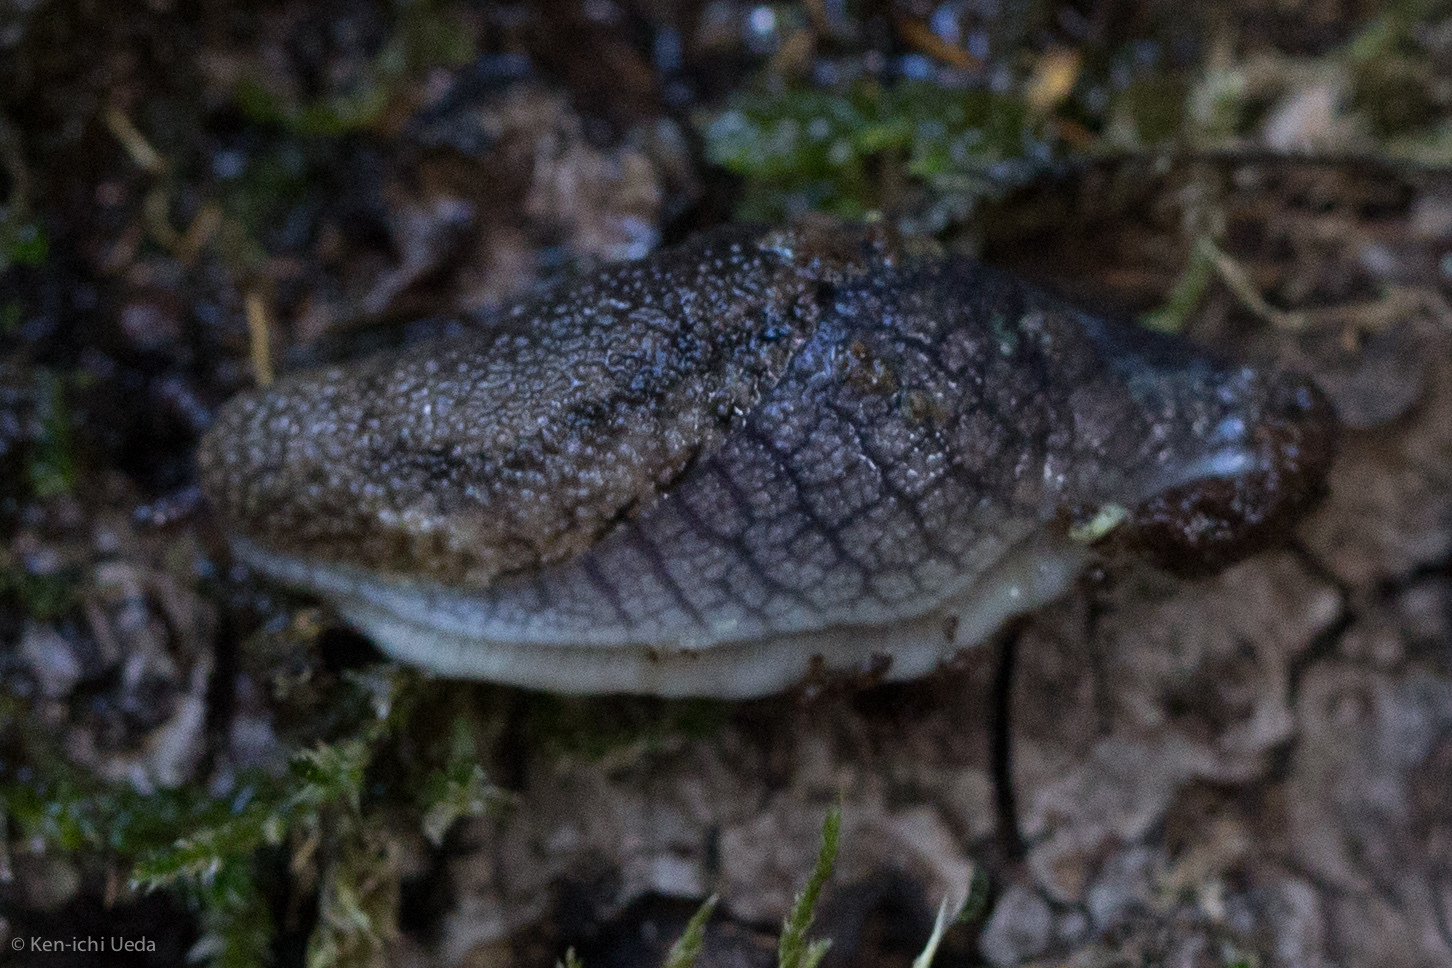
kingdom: Animalia
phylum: Mollusca
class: Gastropoda
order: Stylommatophora
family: Ariolimacidae
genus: Prophysaon
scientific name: Prophysaon andersonii
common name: Reticulate taildropper
